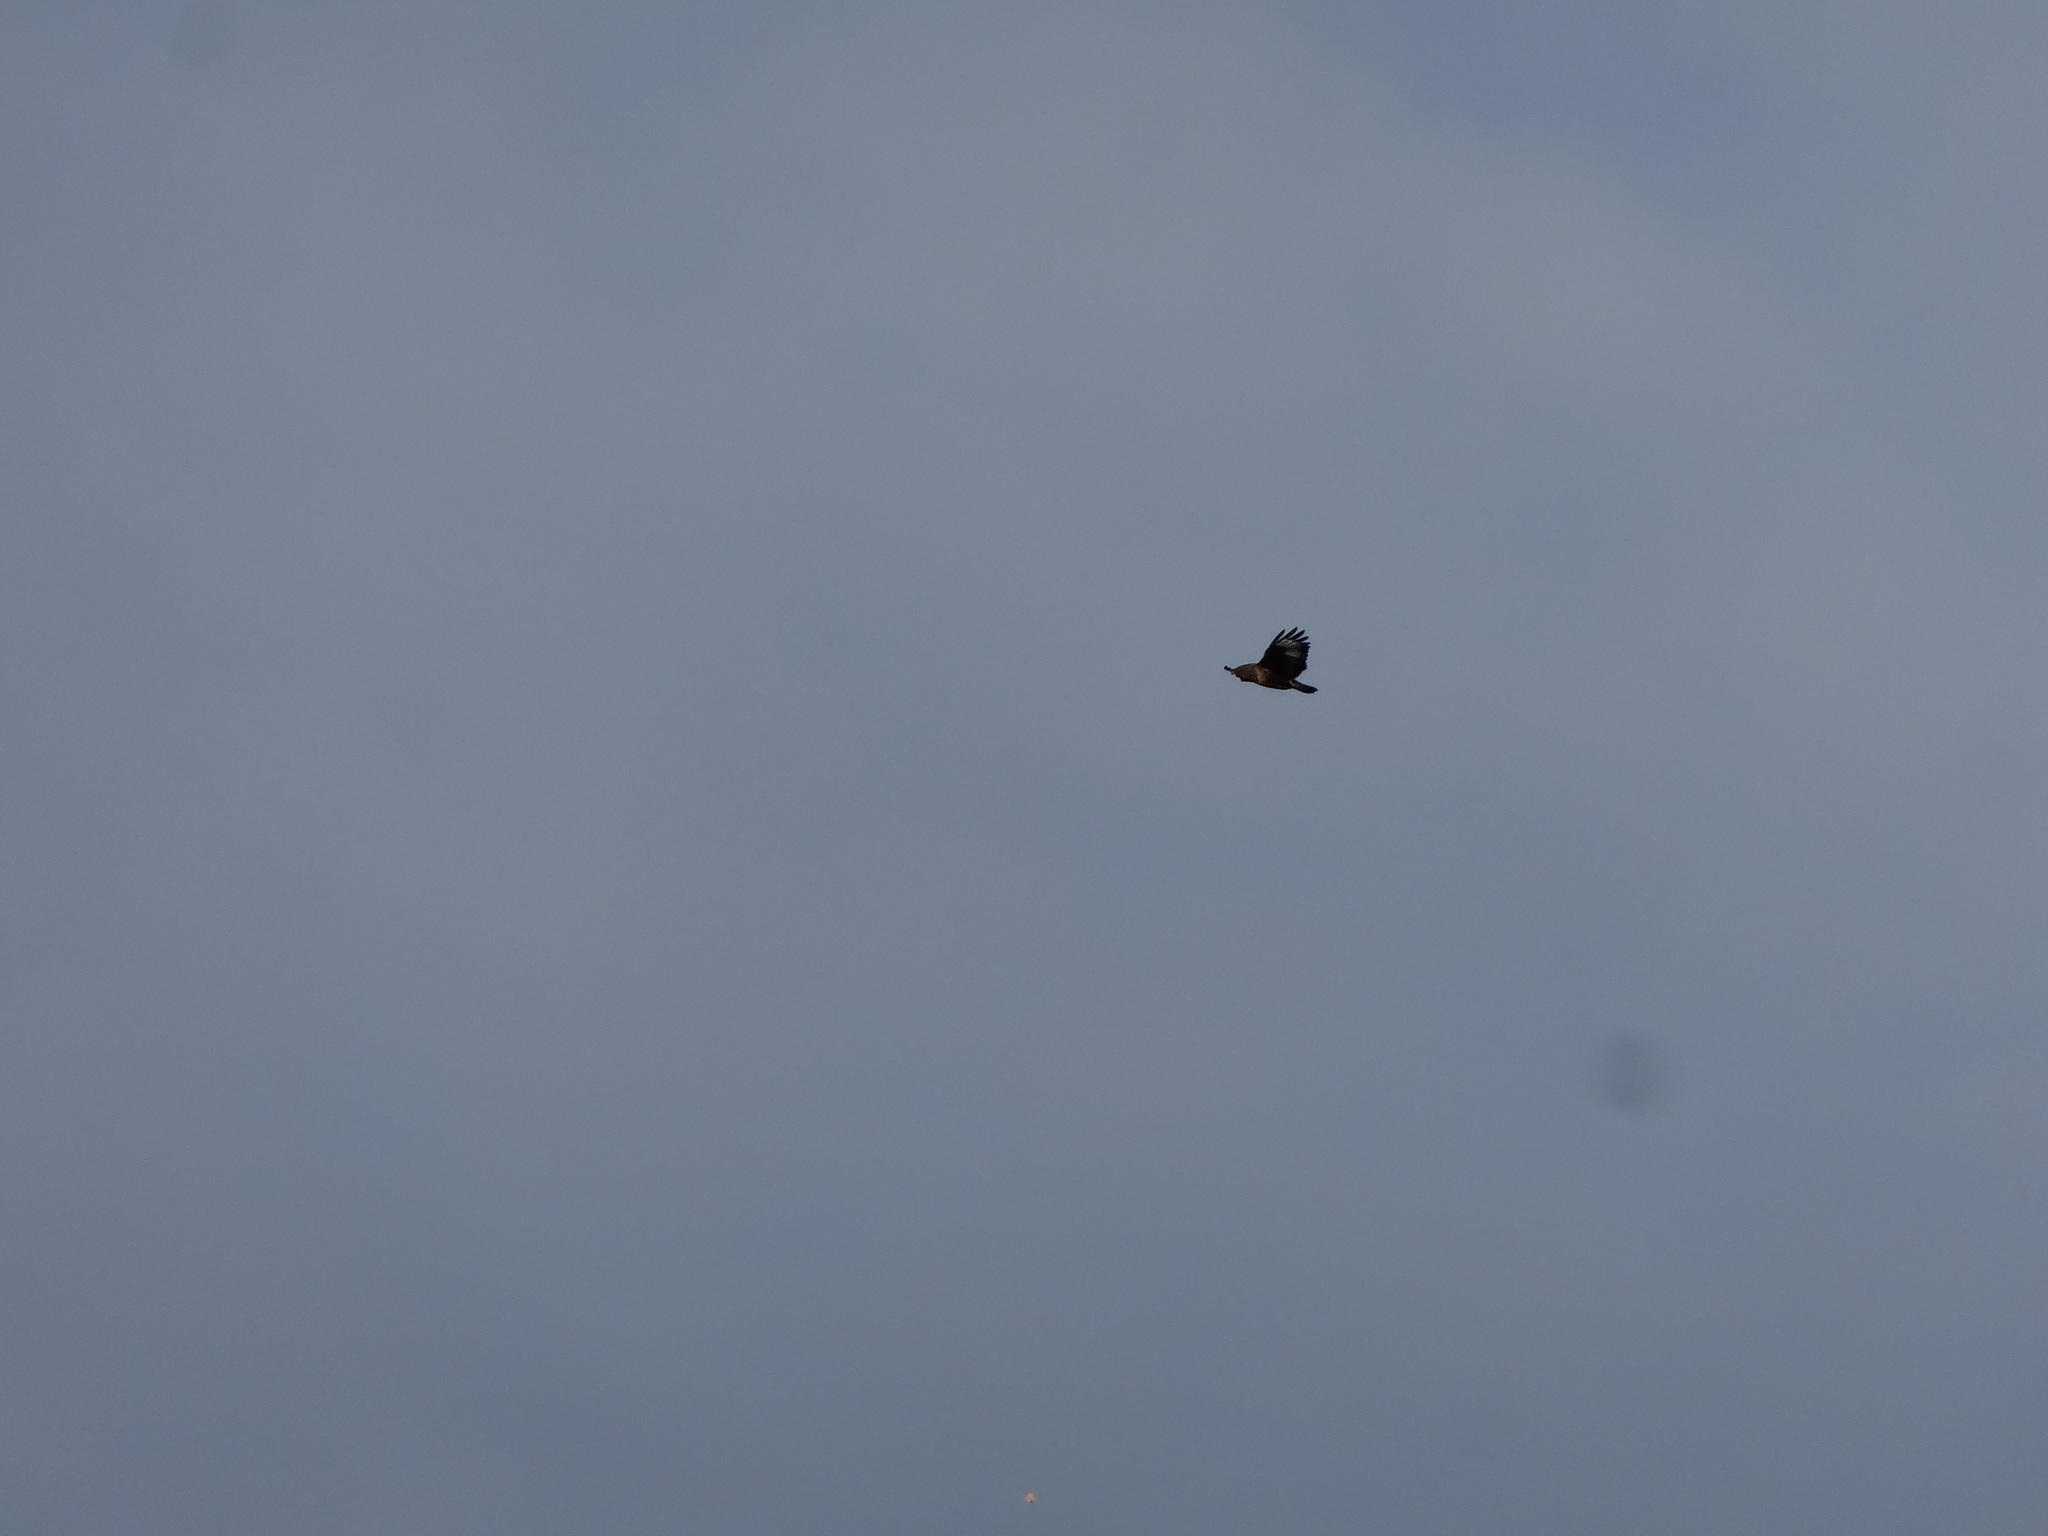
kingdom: Animalia
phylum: Chordata
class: Aves
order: Accipitriformes
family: Accipitridae
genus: Buteo
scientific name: Buteo buteo
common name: Common buzzard
